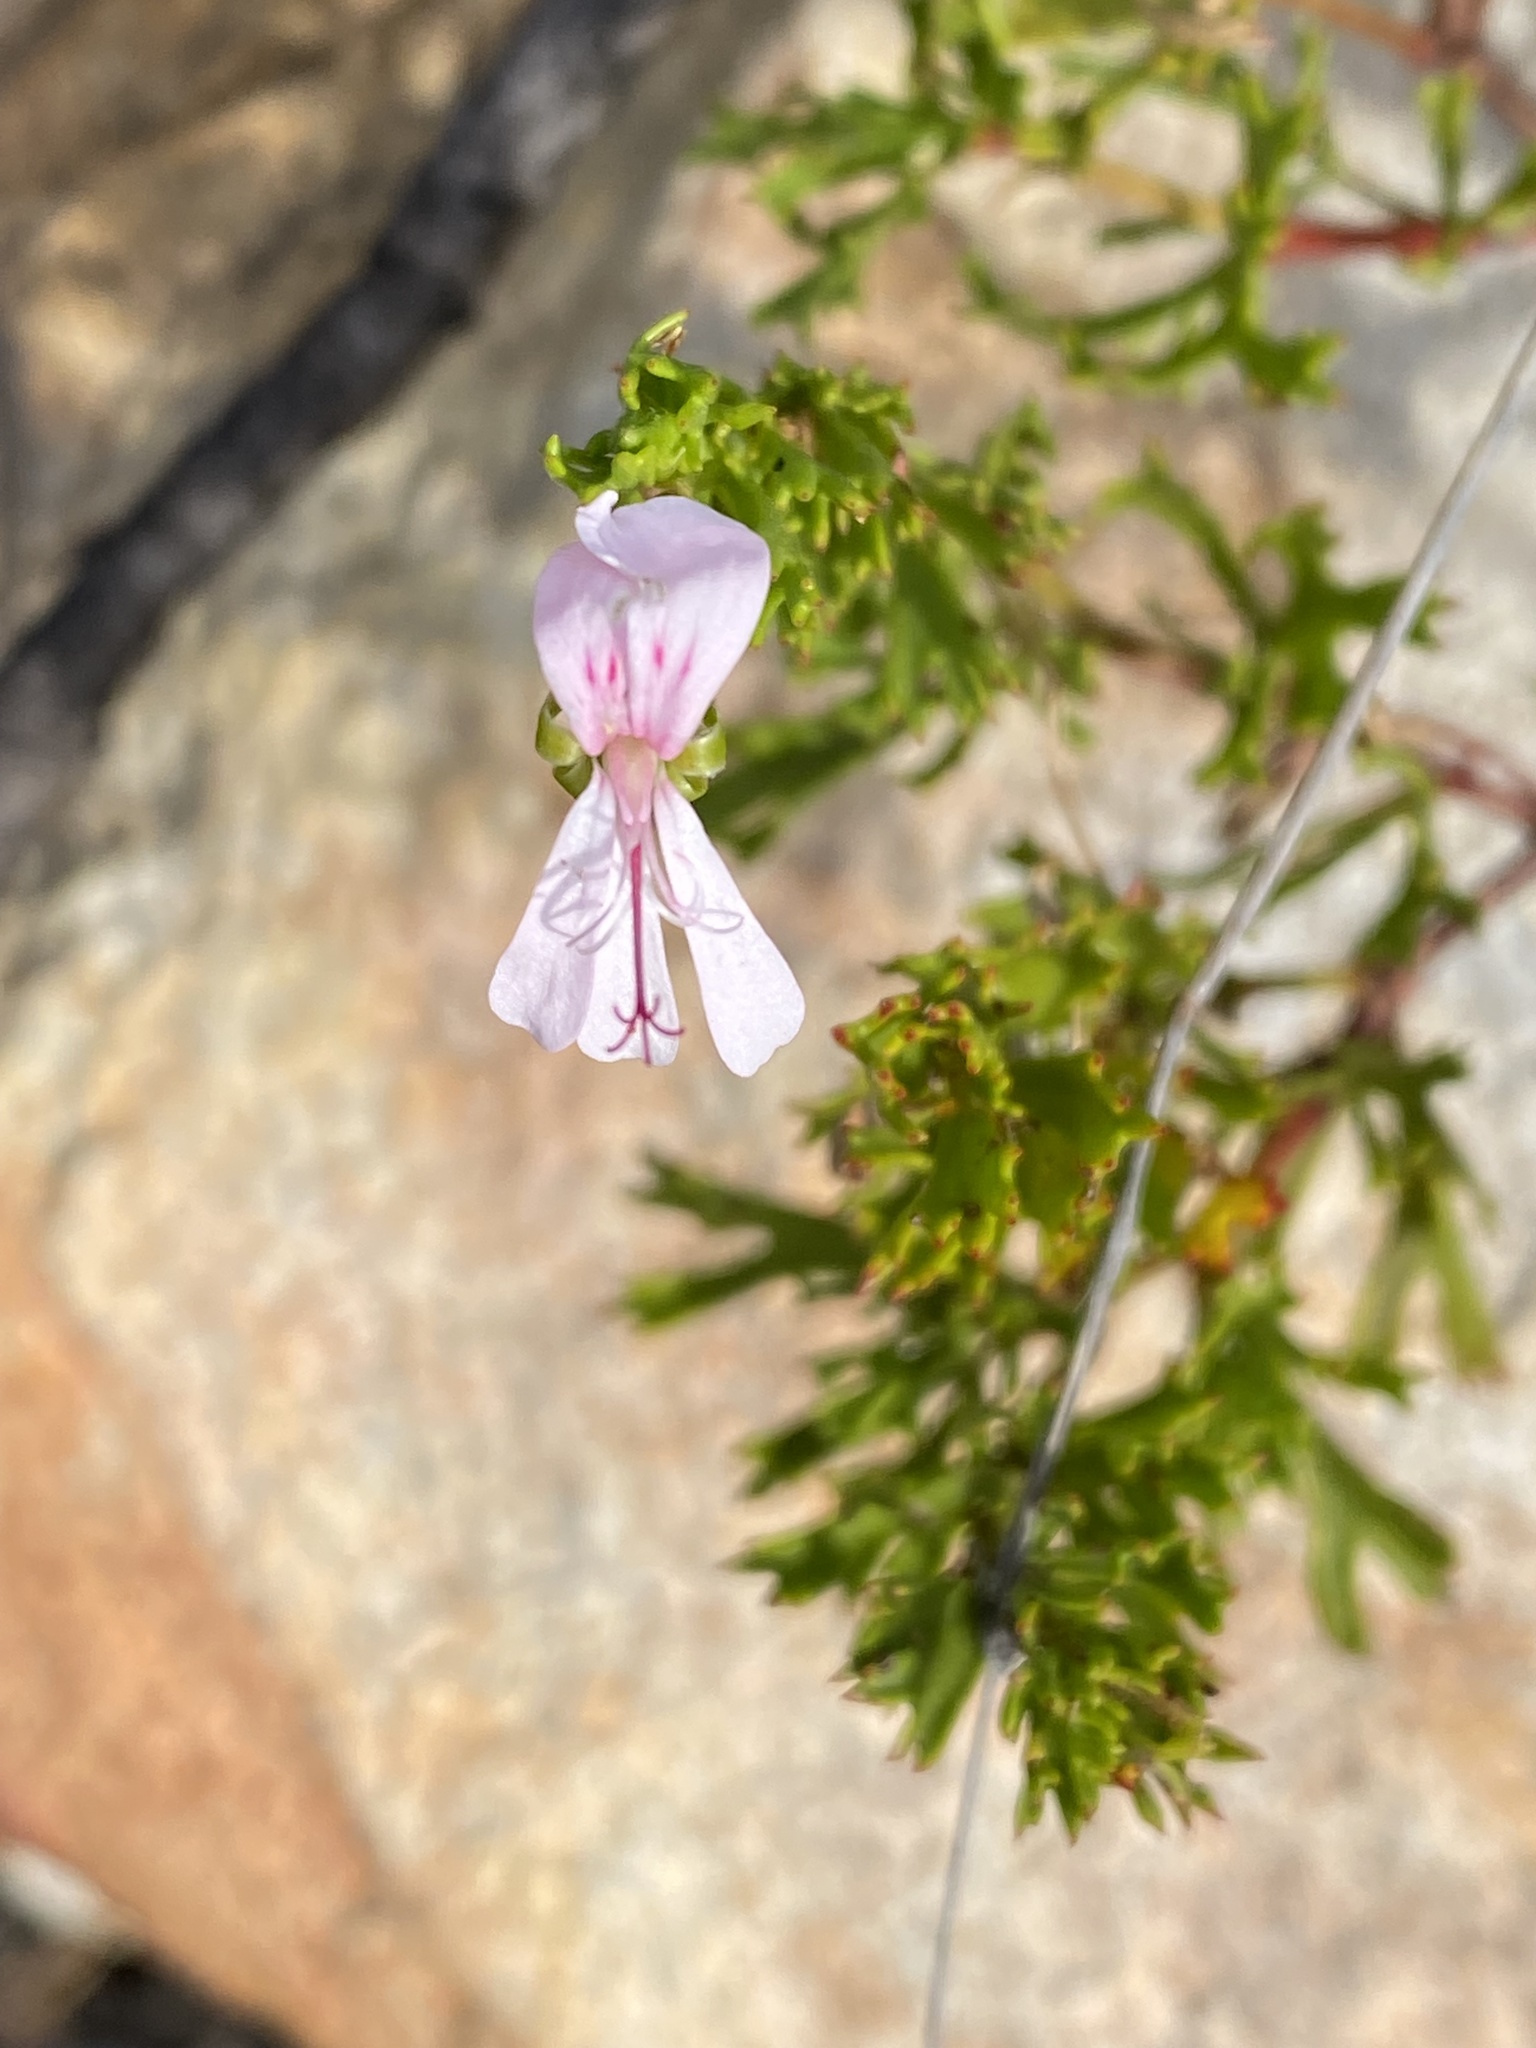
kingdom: Plantae
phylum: Tracheophyta
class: Magnoliopsida
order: Geraniales
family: Geraniaceae
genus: Pelargonium
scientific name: Pelargonium fruticosum
